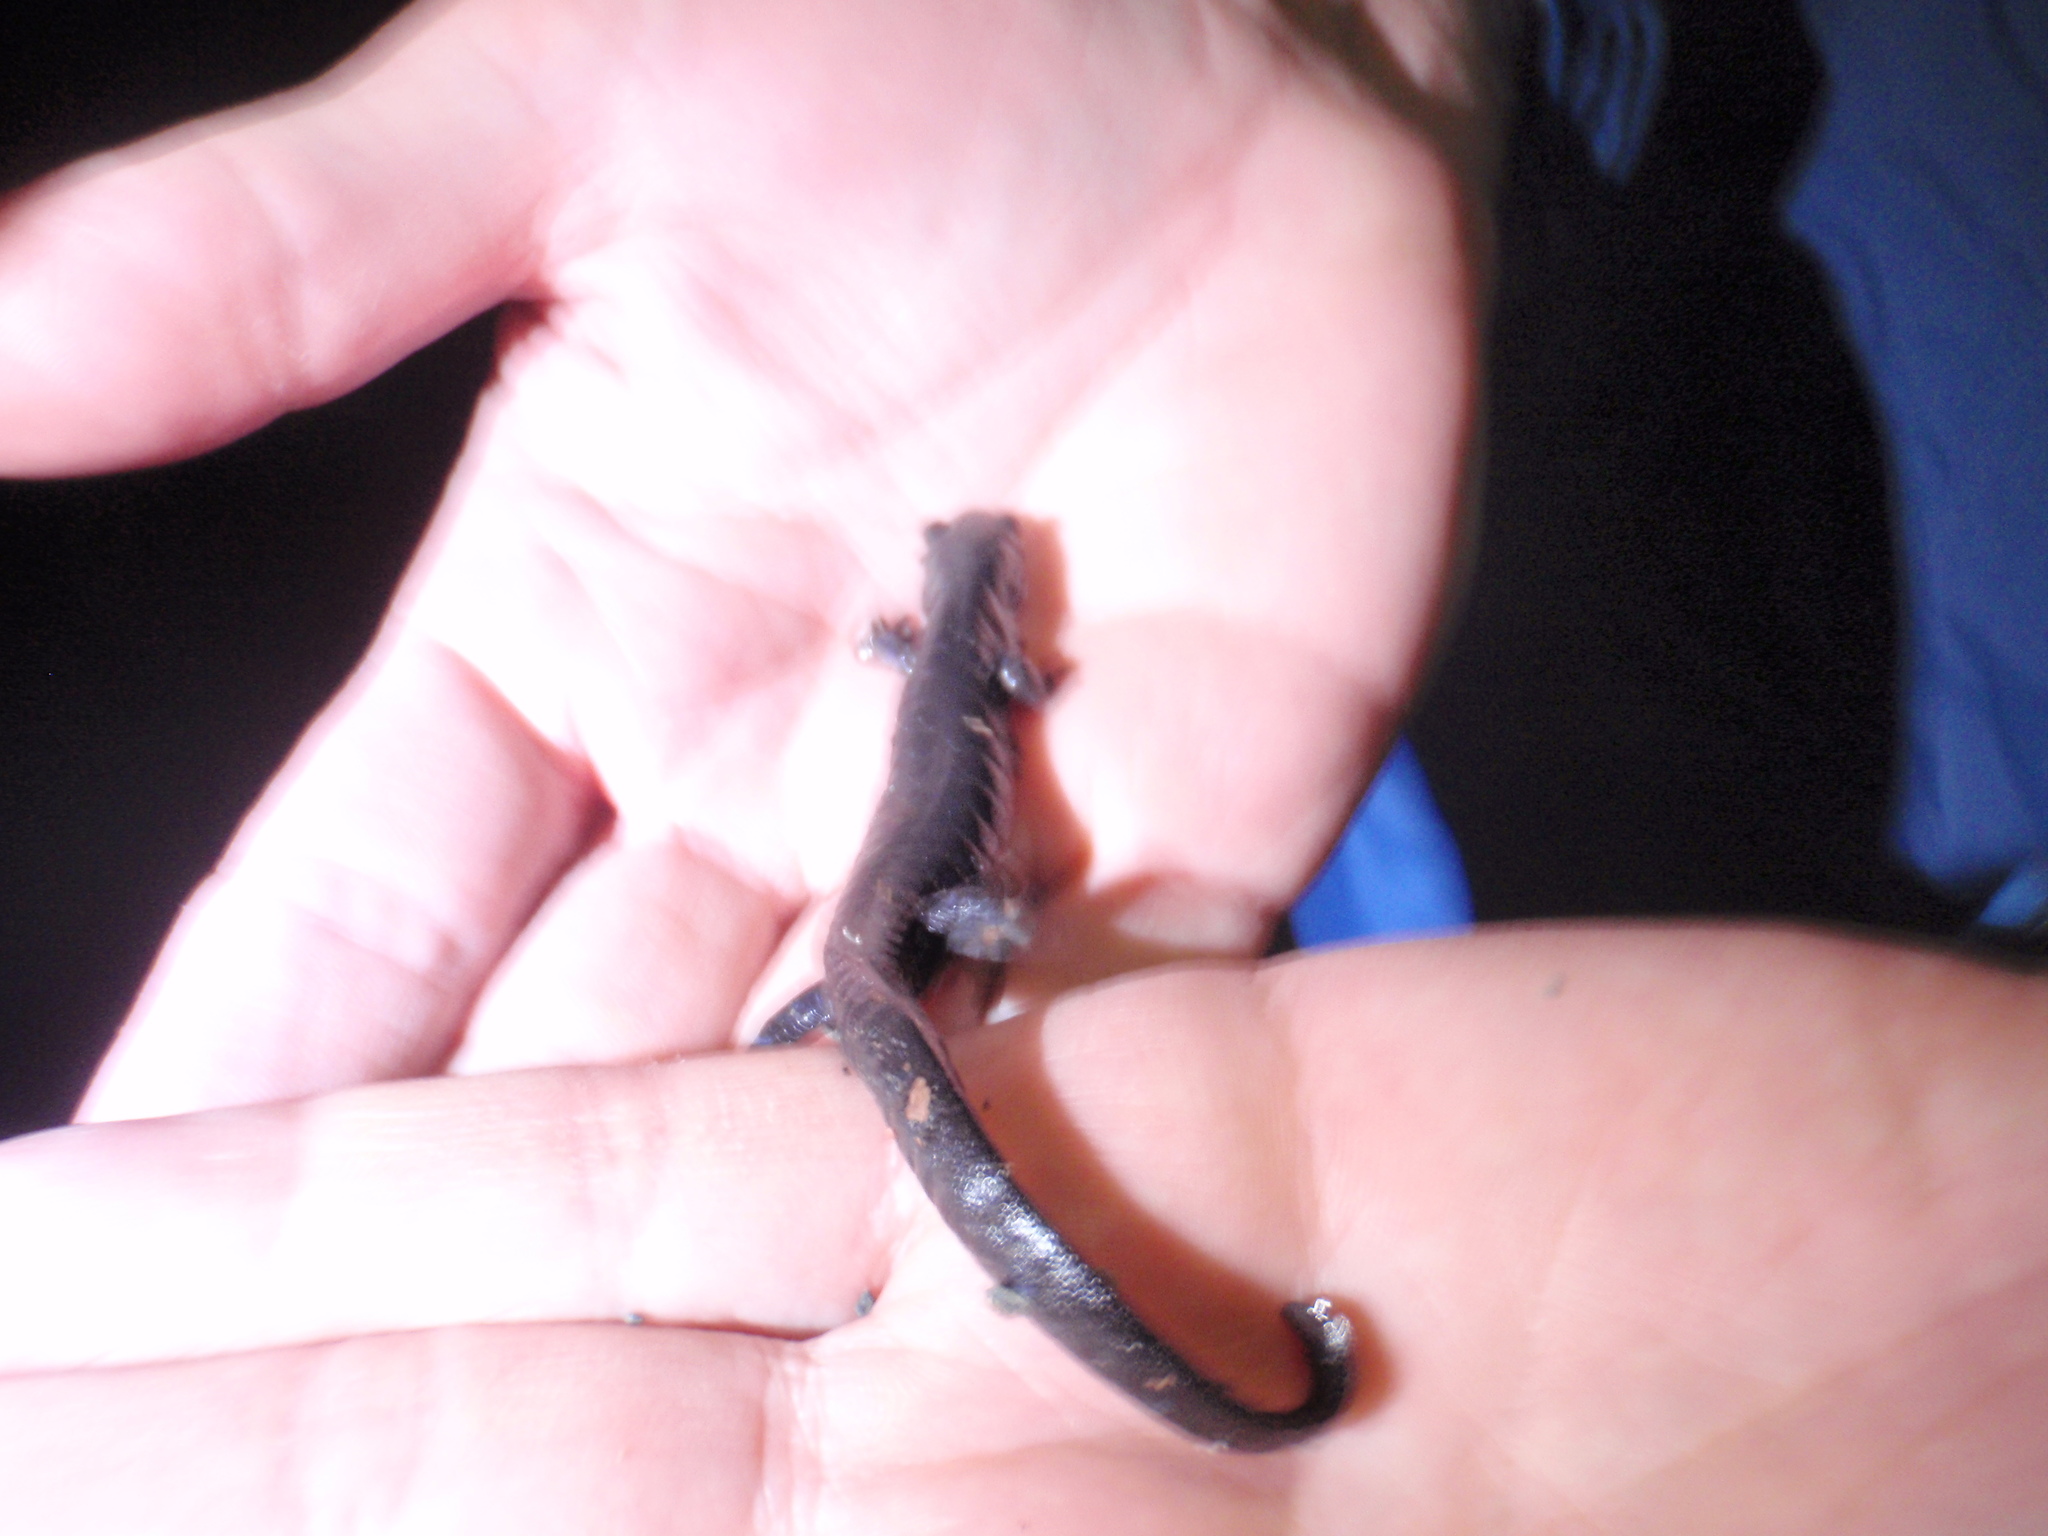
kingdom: Animalia
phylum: Chordata
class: Amphibia
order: Caudata
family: Ambystomatidae
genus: Ambystoma
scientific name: Ambystoma laterale
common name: Blue-spotted salamander
